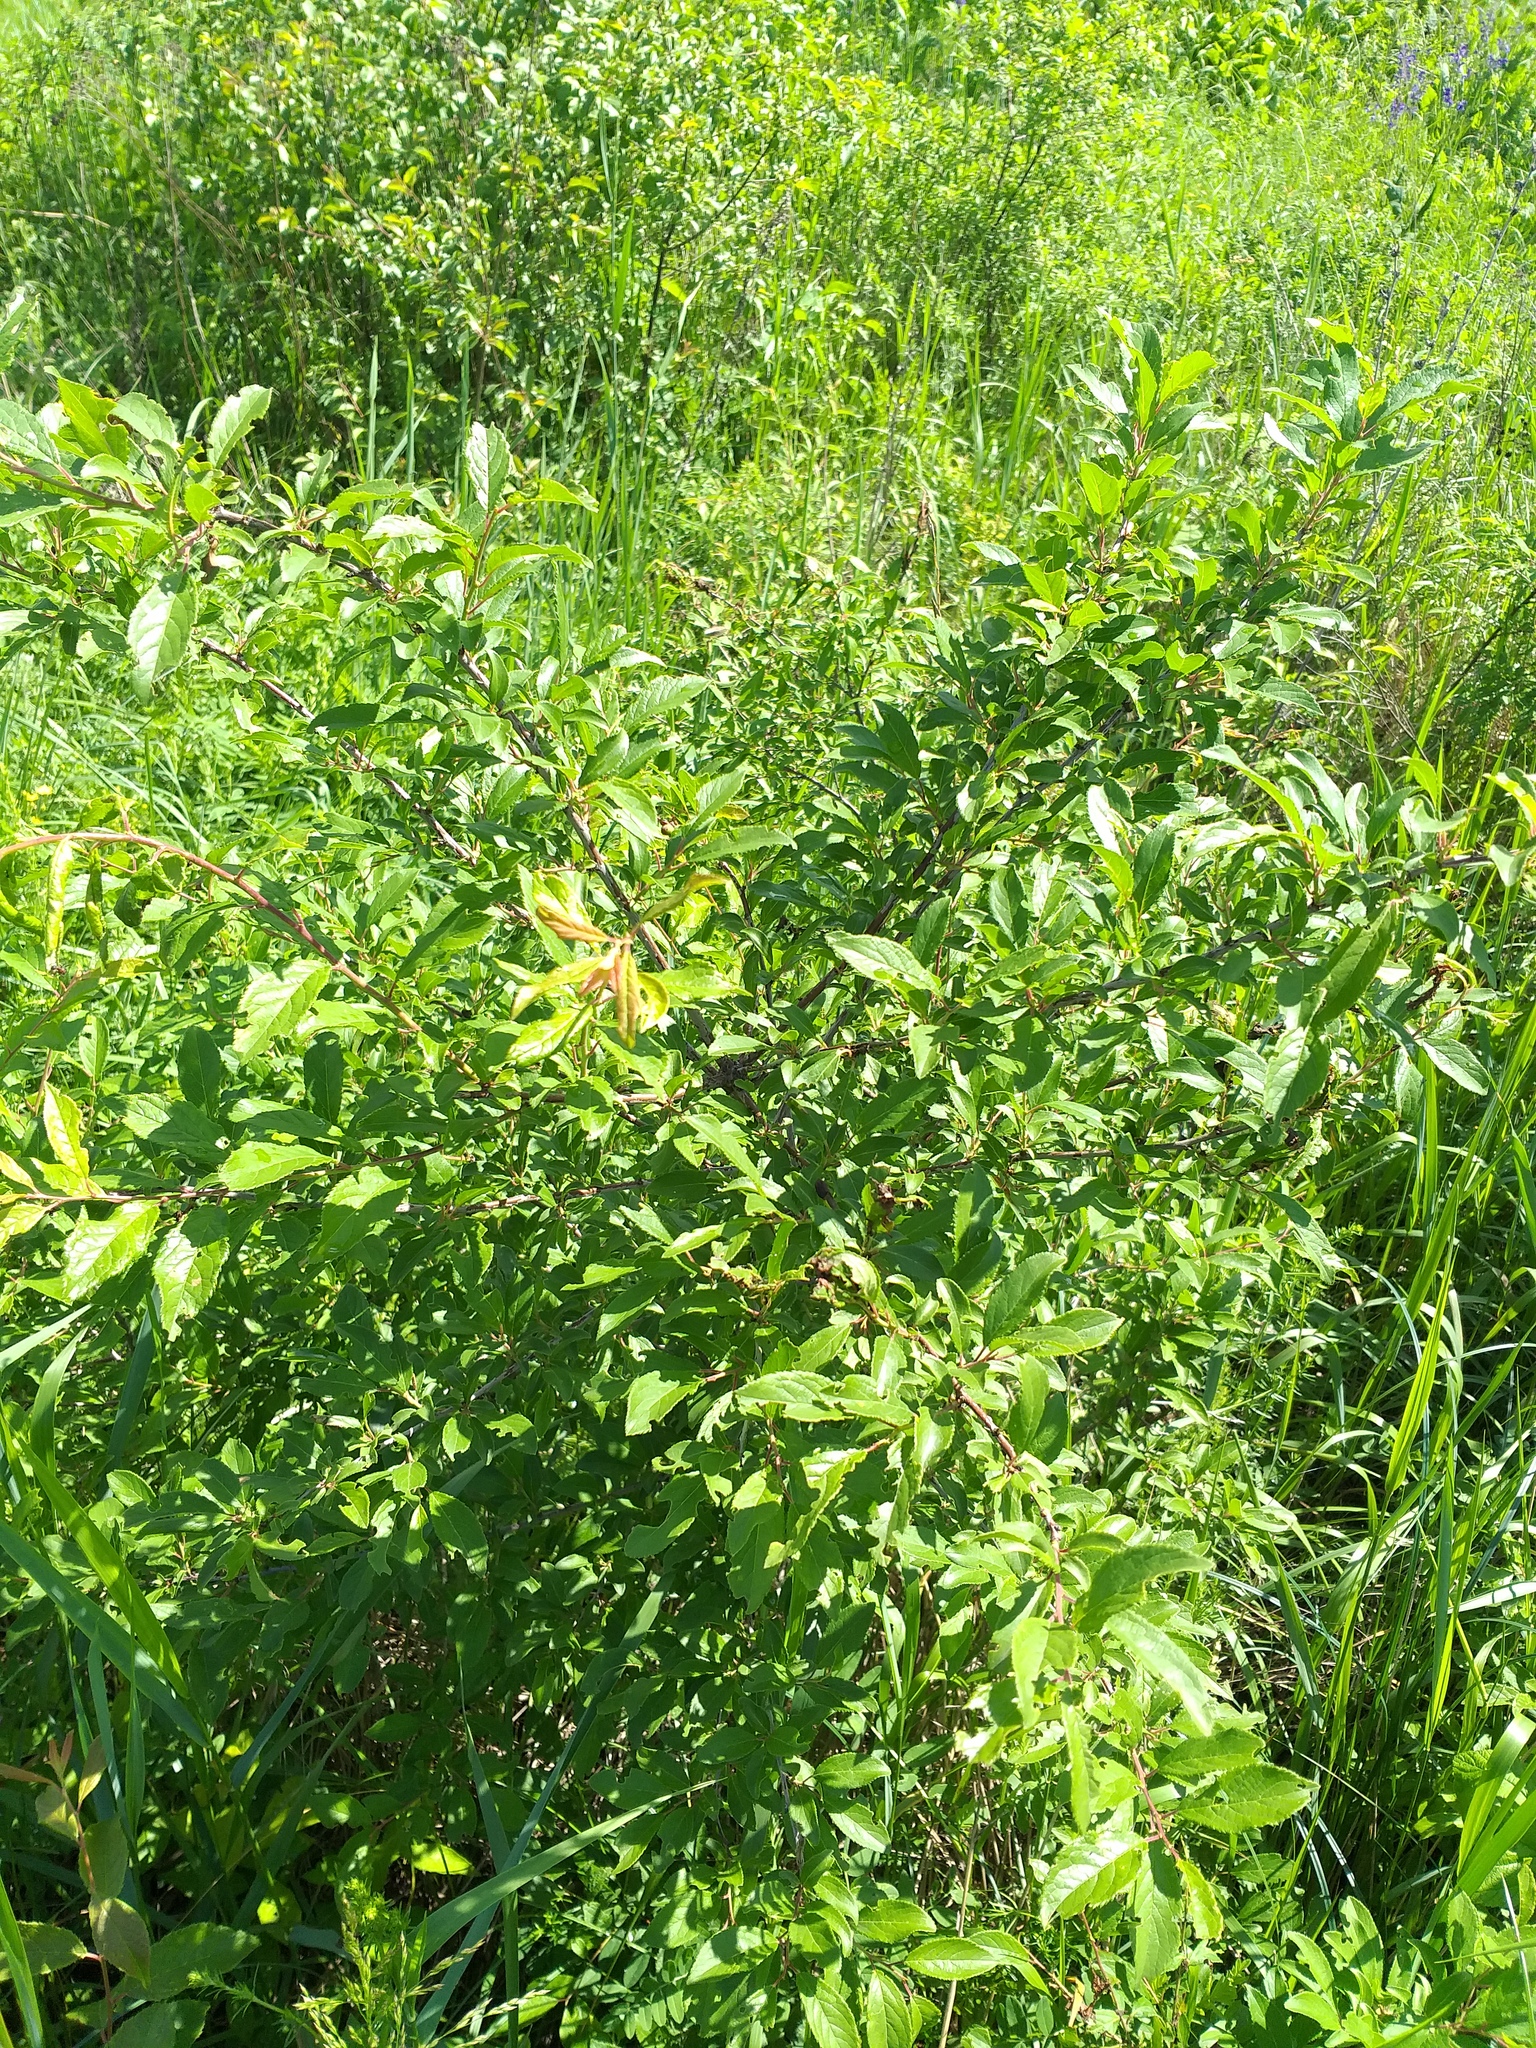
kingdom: Plantae
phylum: Tracheophyta
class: Magnoliopsida
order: Rosales
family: Rosaceae
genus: Prunus
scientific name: Prunus spinosa
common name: Blackthorn
